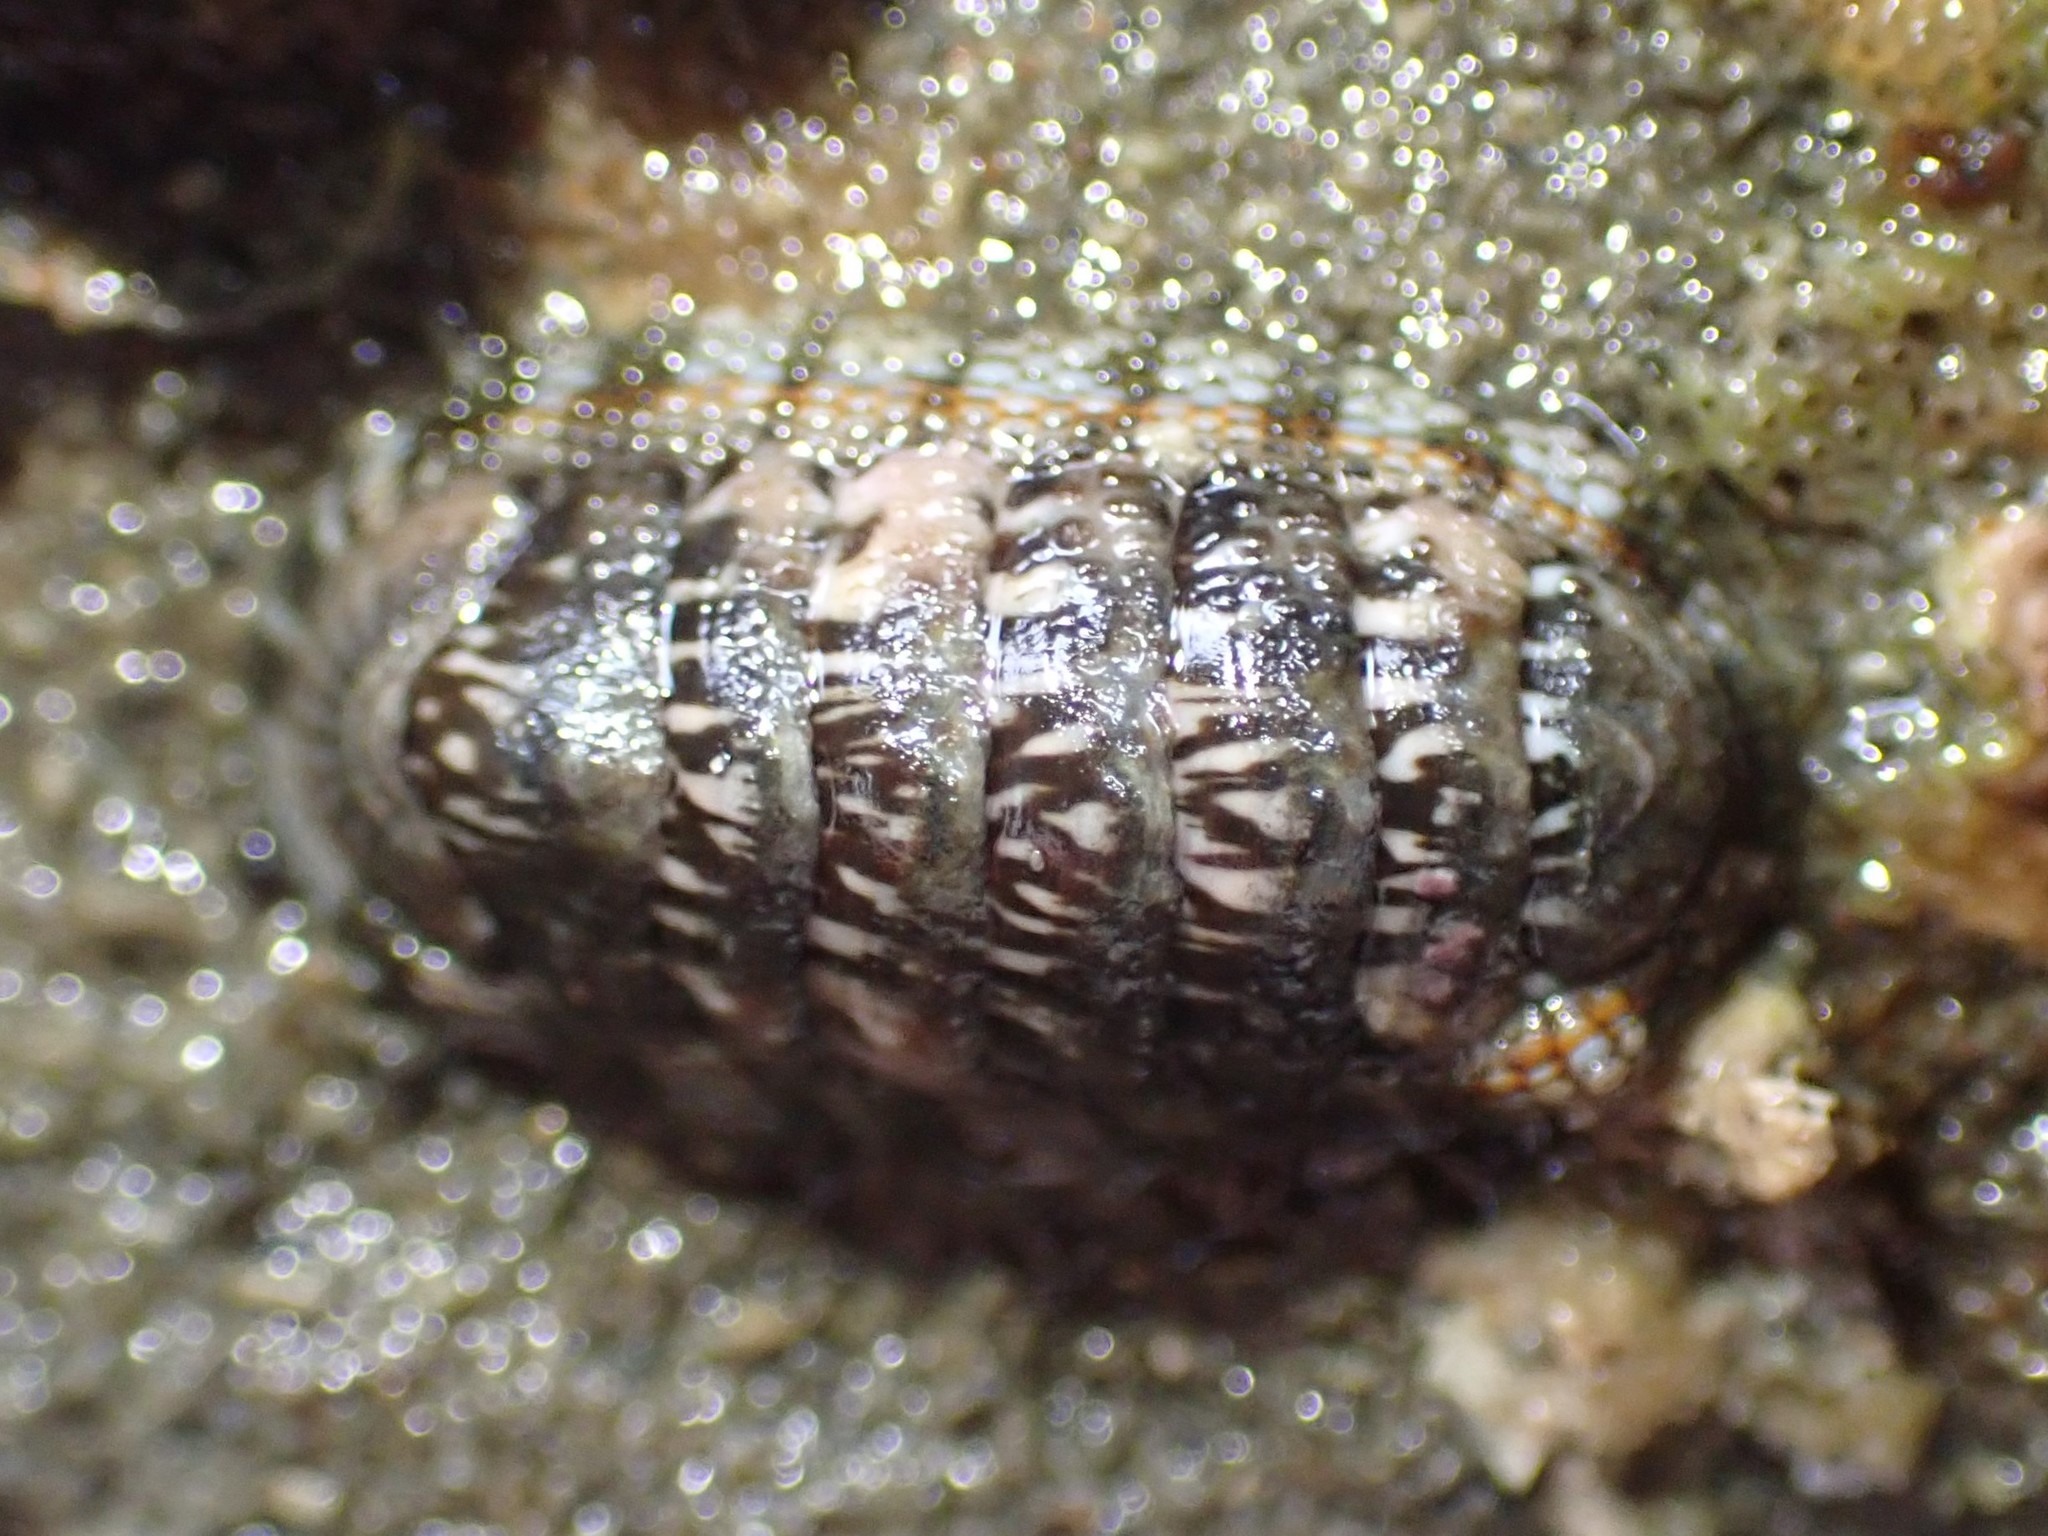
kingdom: Animalia
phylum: Mollusca
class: Polyplacophora
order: Chitonida
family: Chitonidae
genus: Sypharochiton
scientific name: Sypharochiton sinclairi
